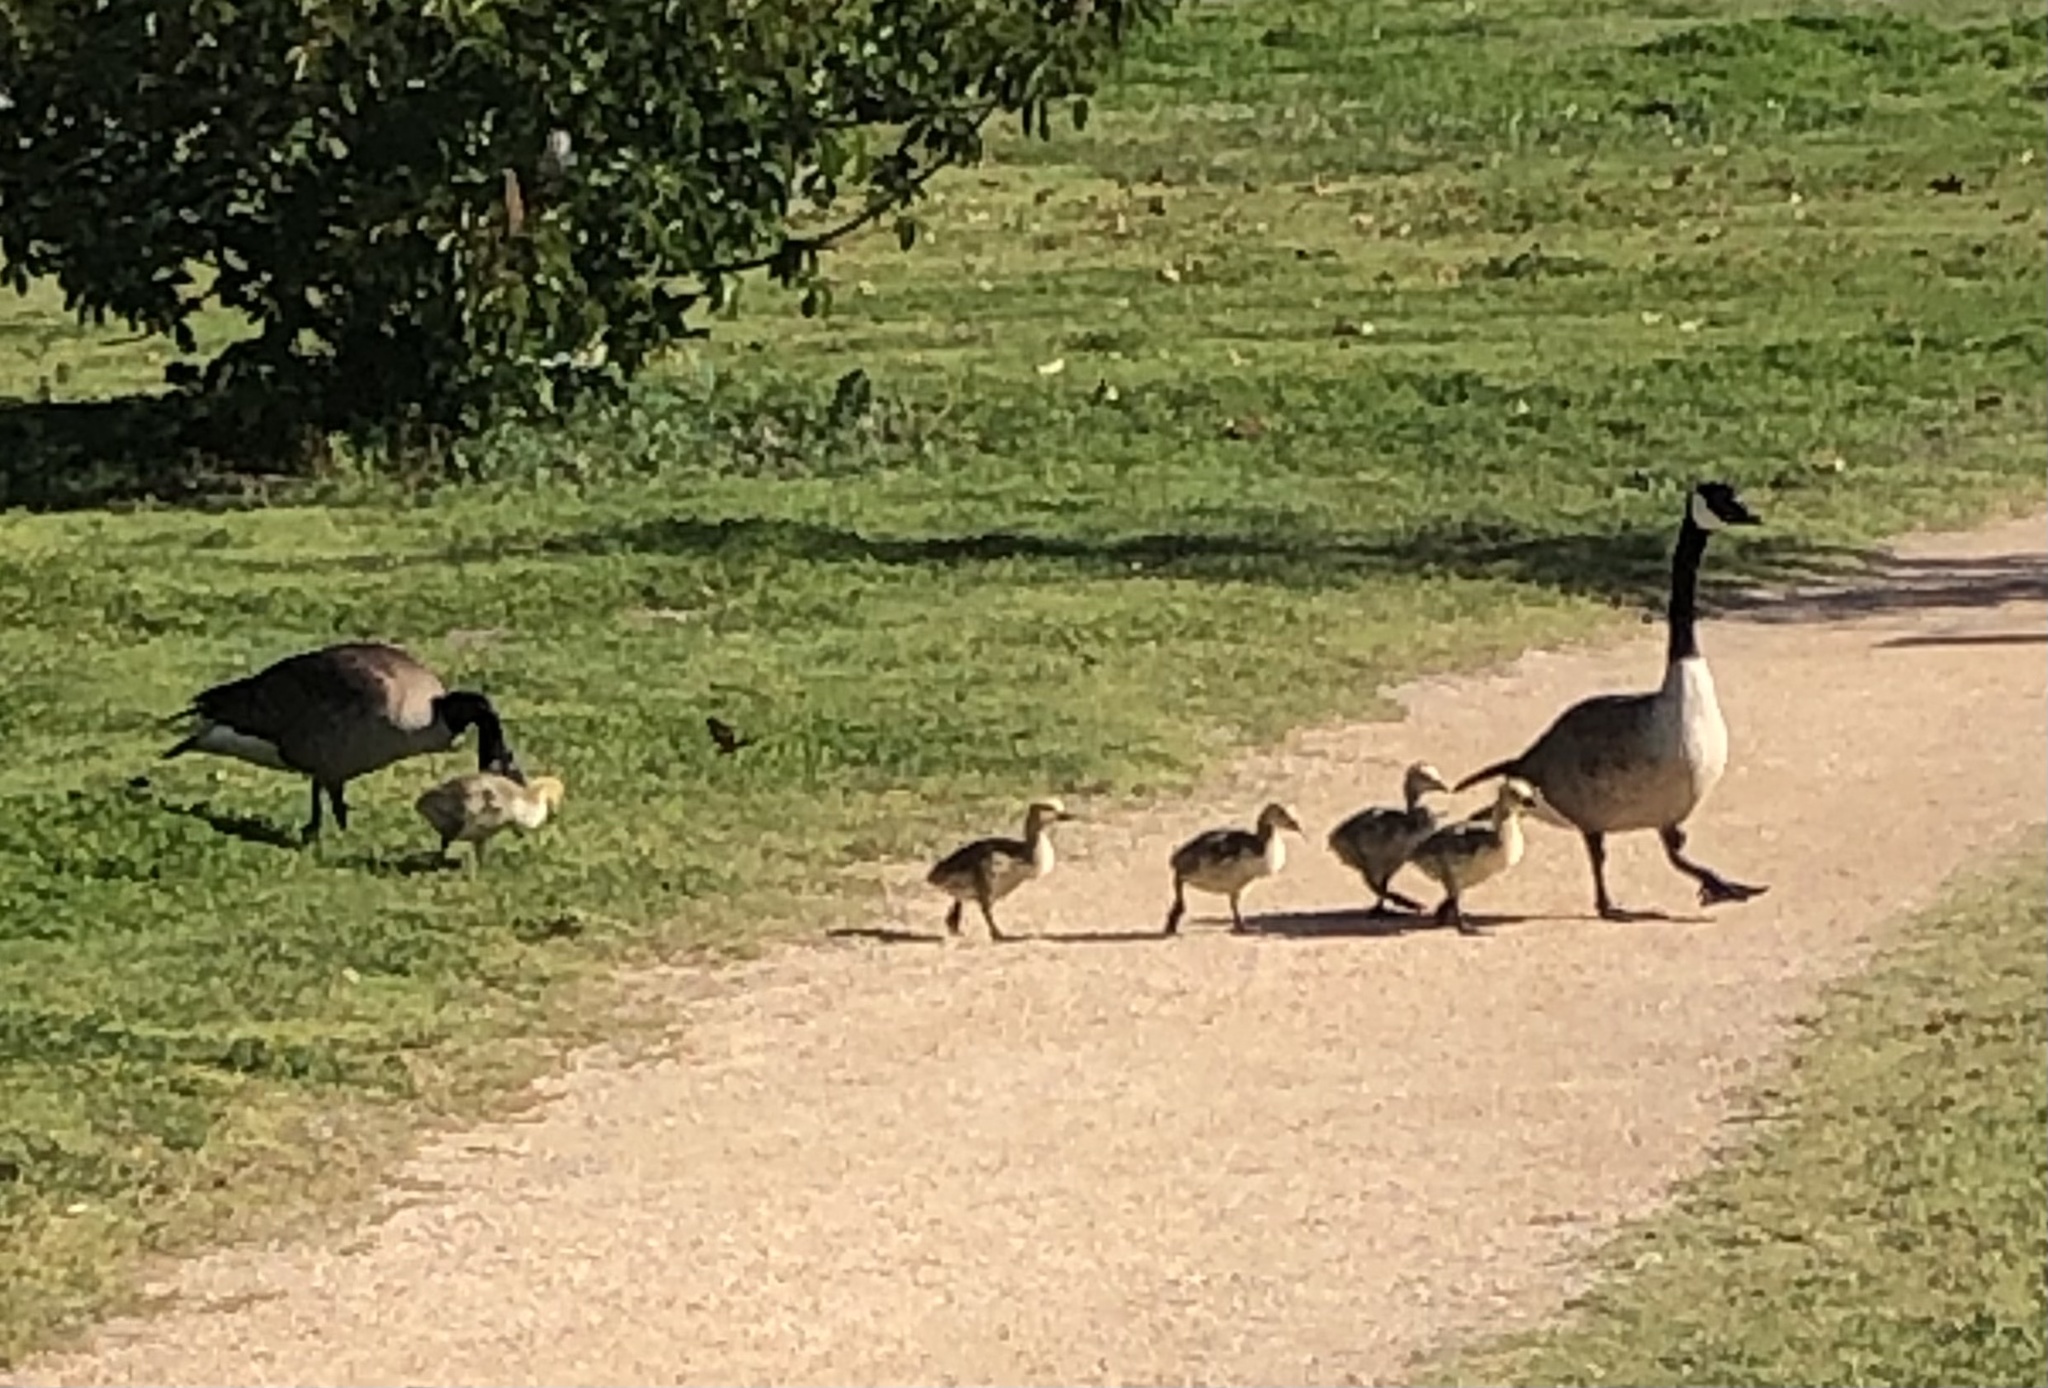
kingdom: Animalia
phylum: Chordata
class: Aves
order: Anseriformes
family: Anatidae
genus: Branta
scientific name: Branta canadensis
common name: Canada goose
